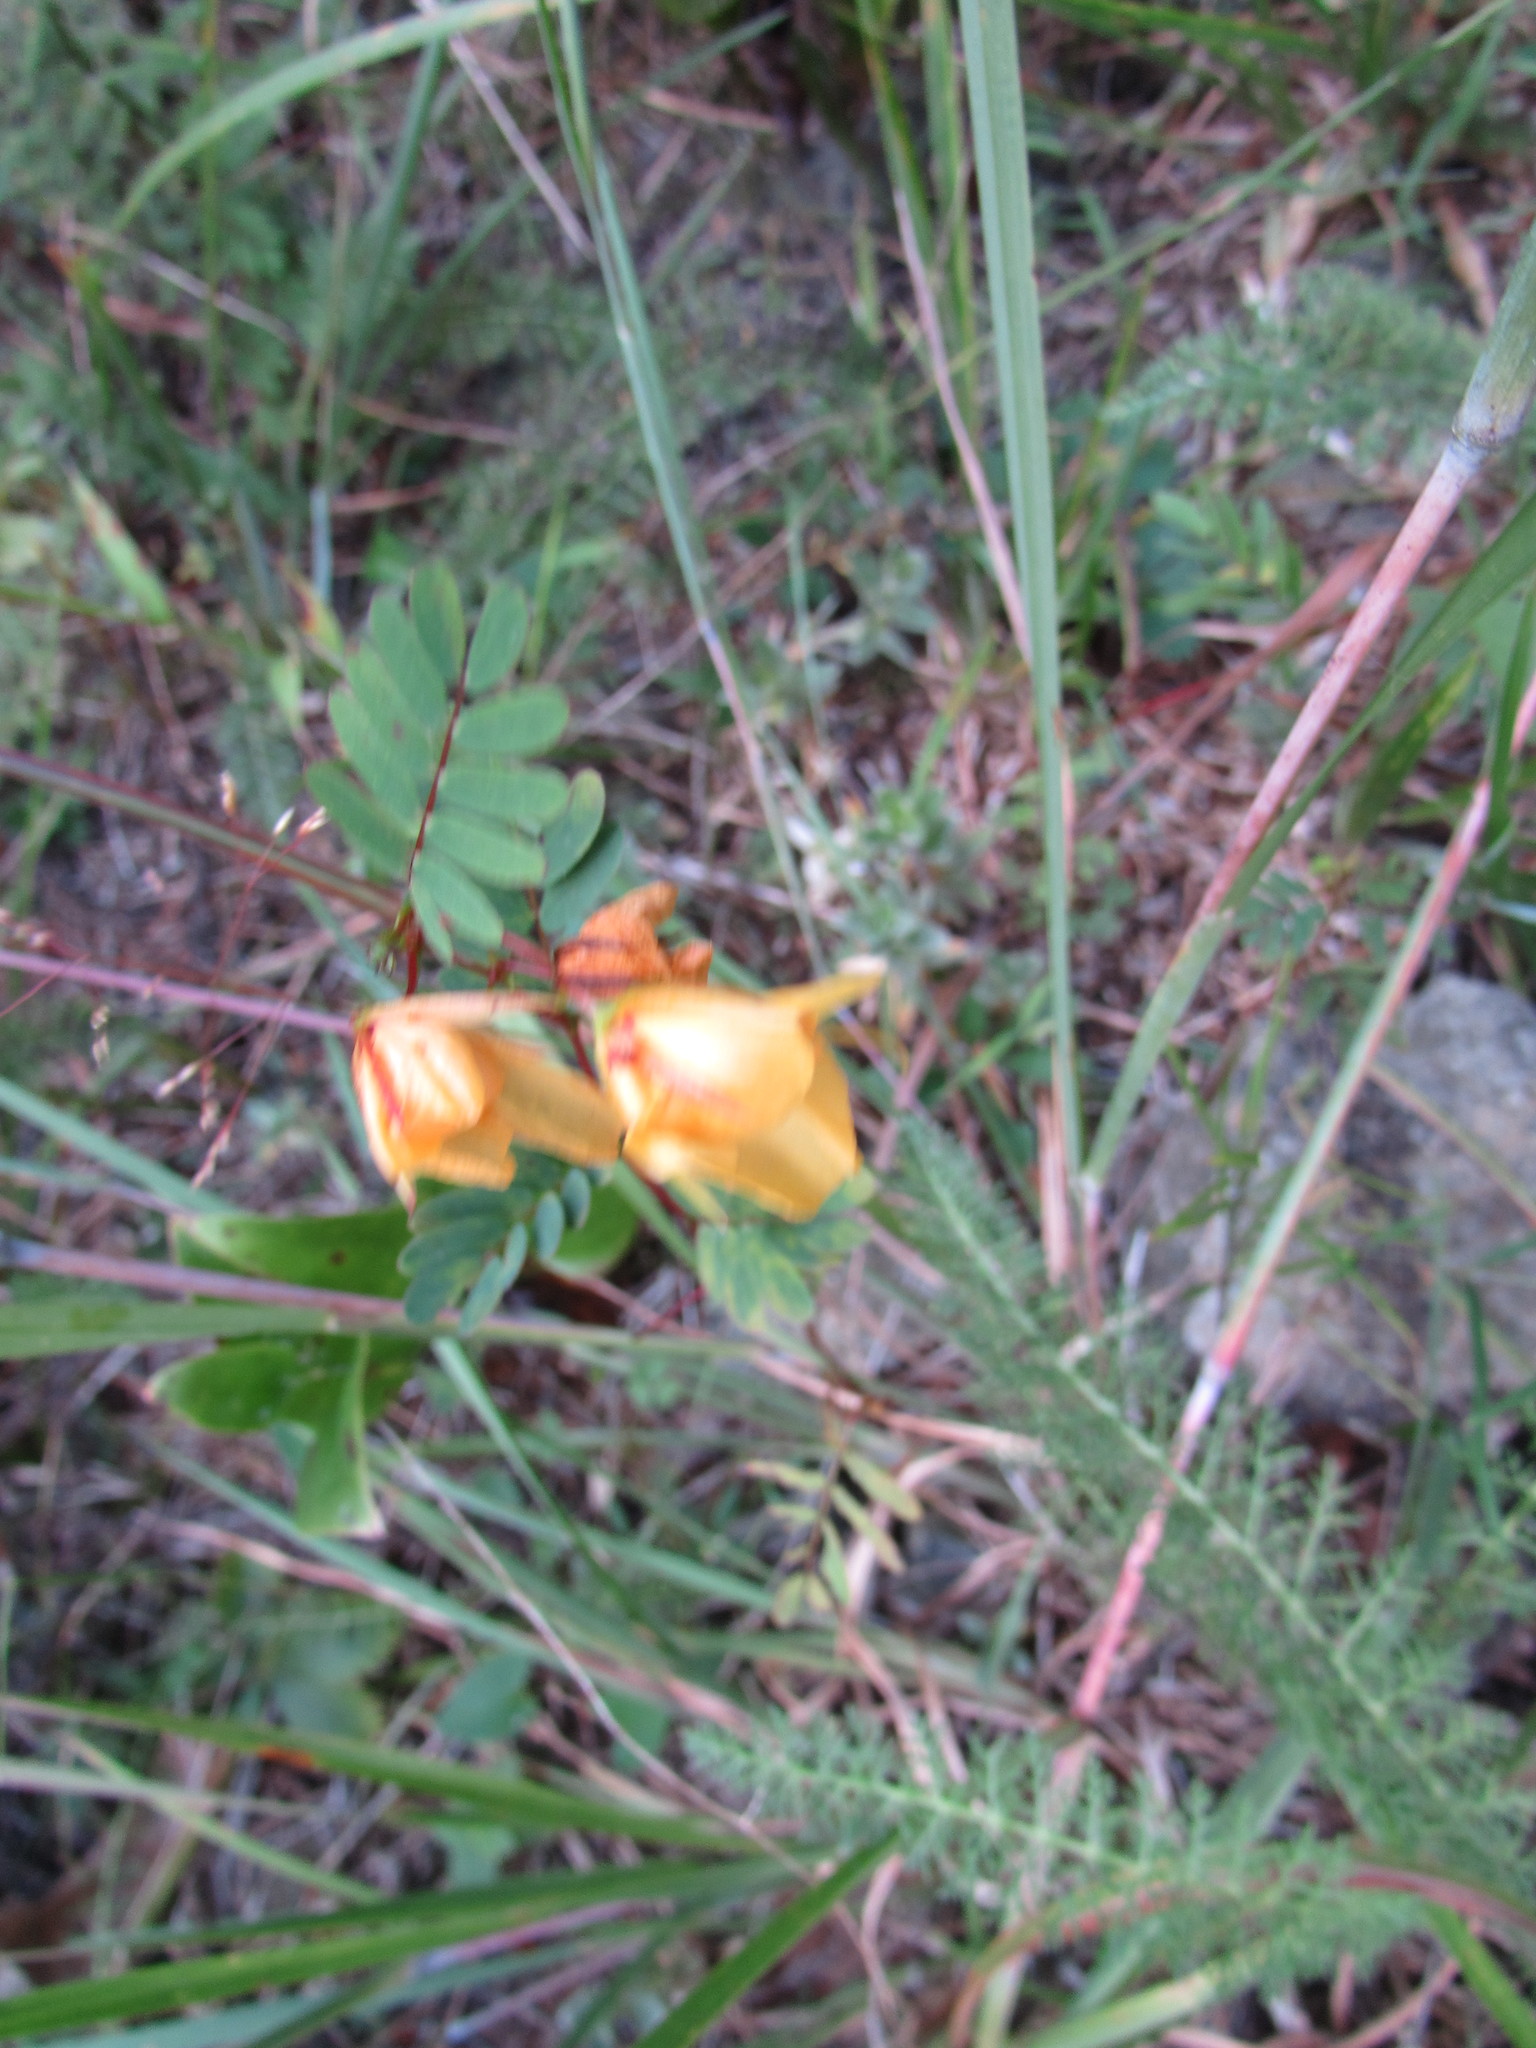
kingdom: Plantae
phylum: Tracheophyta
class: Magnoliopsida
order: Fabales
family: Fabaceae
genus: Chamaecrista
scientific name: Chamaecrista fasciculata
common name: Golden cassia
